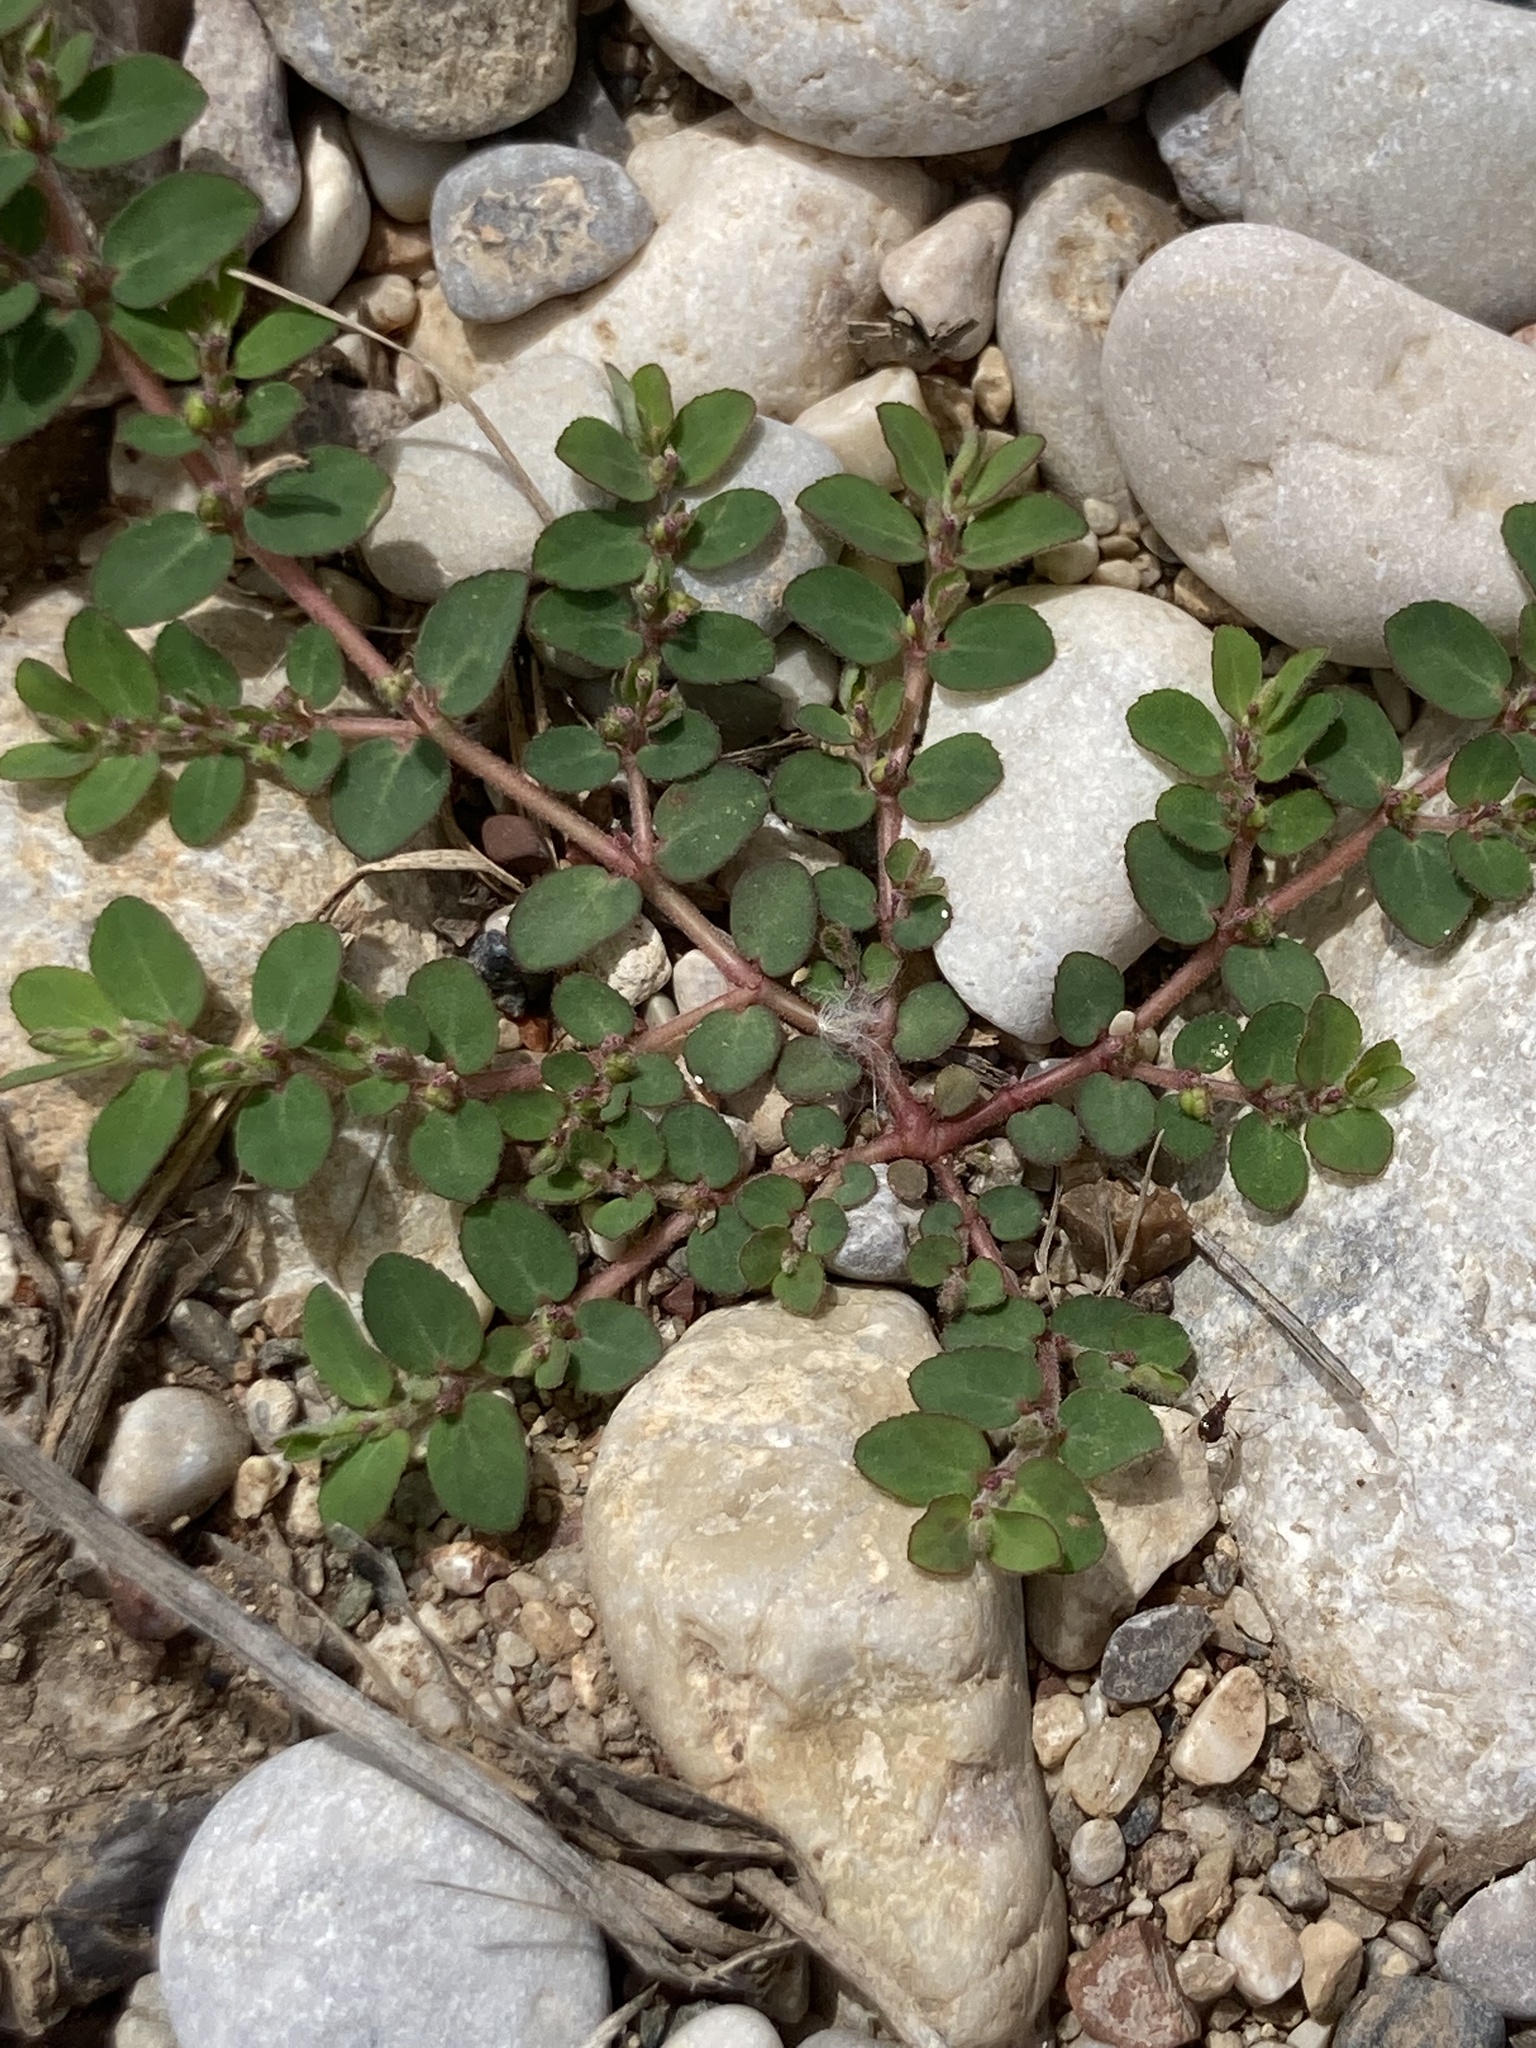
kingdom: Plantae
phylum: Tracheophyta
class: Magnoliopsida
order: Malpighiales
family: Euphorbiaceae
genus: Euphorbia
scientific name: Euphorbia prostrata
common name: Prostrate sandmat
